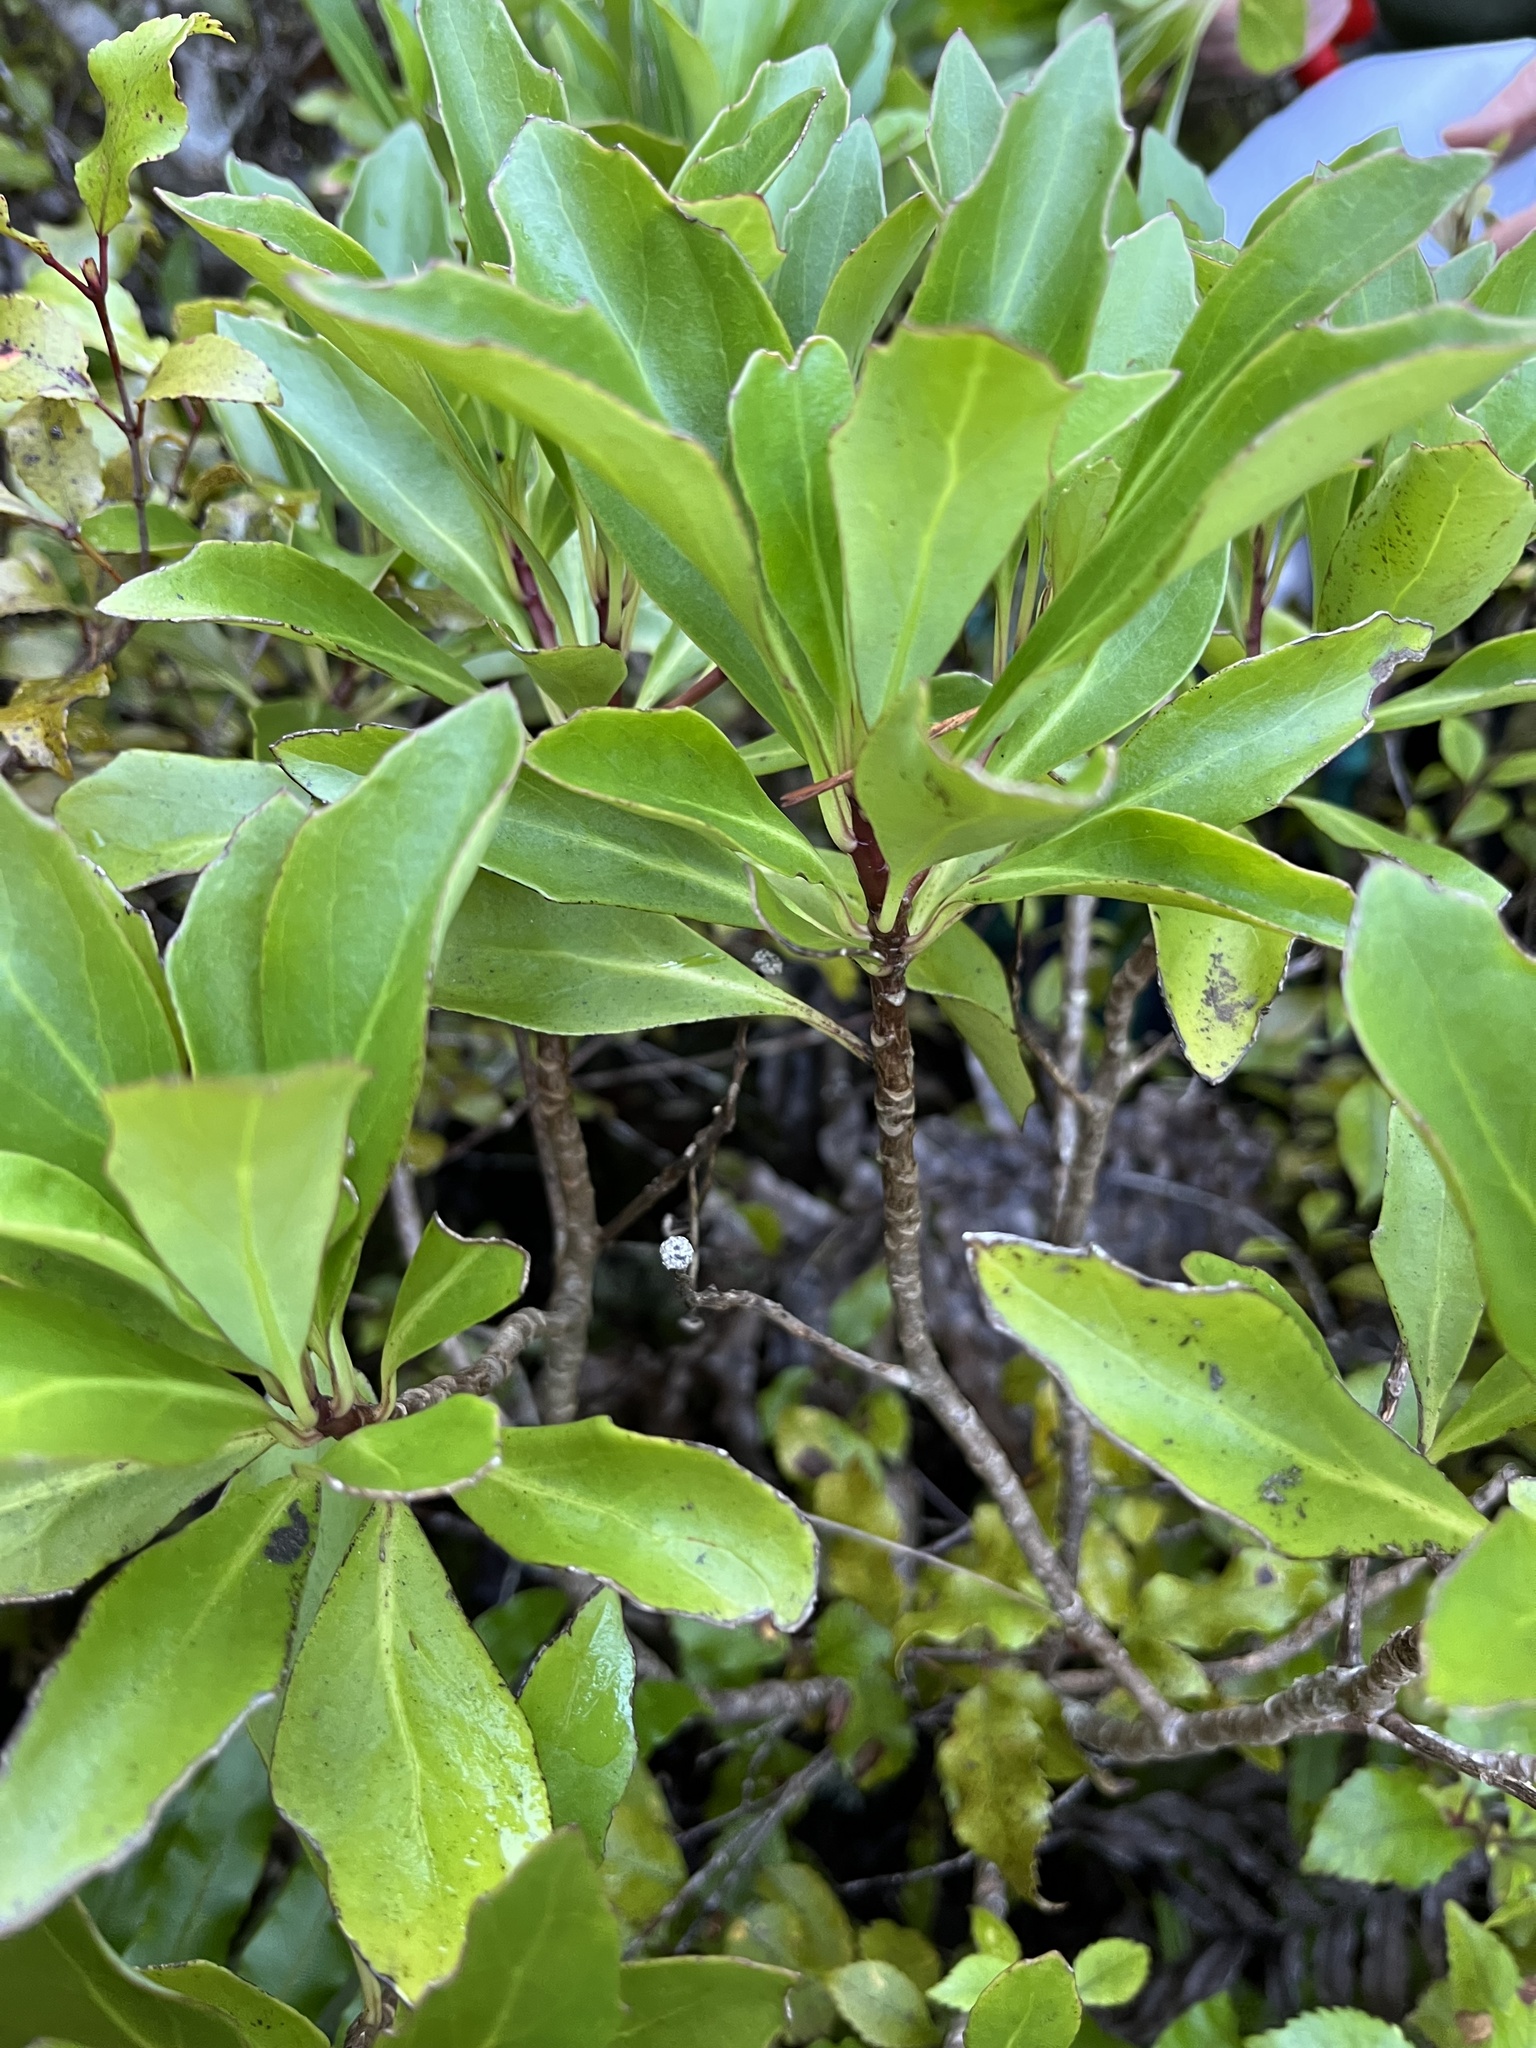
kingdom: Plantae
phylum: Tracheophyta
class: Magnoliopsida
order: Asterales
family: Asteraceae
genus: Brachyglottis
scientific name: Brachyglottis kirkii
